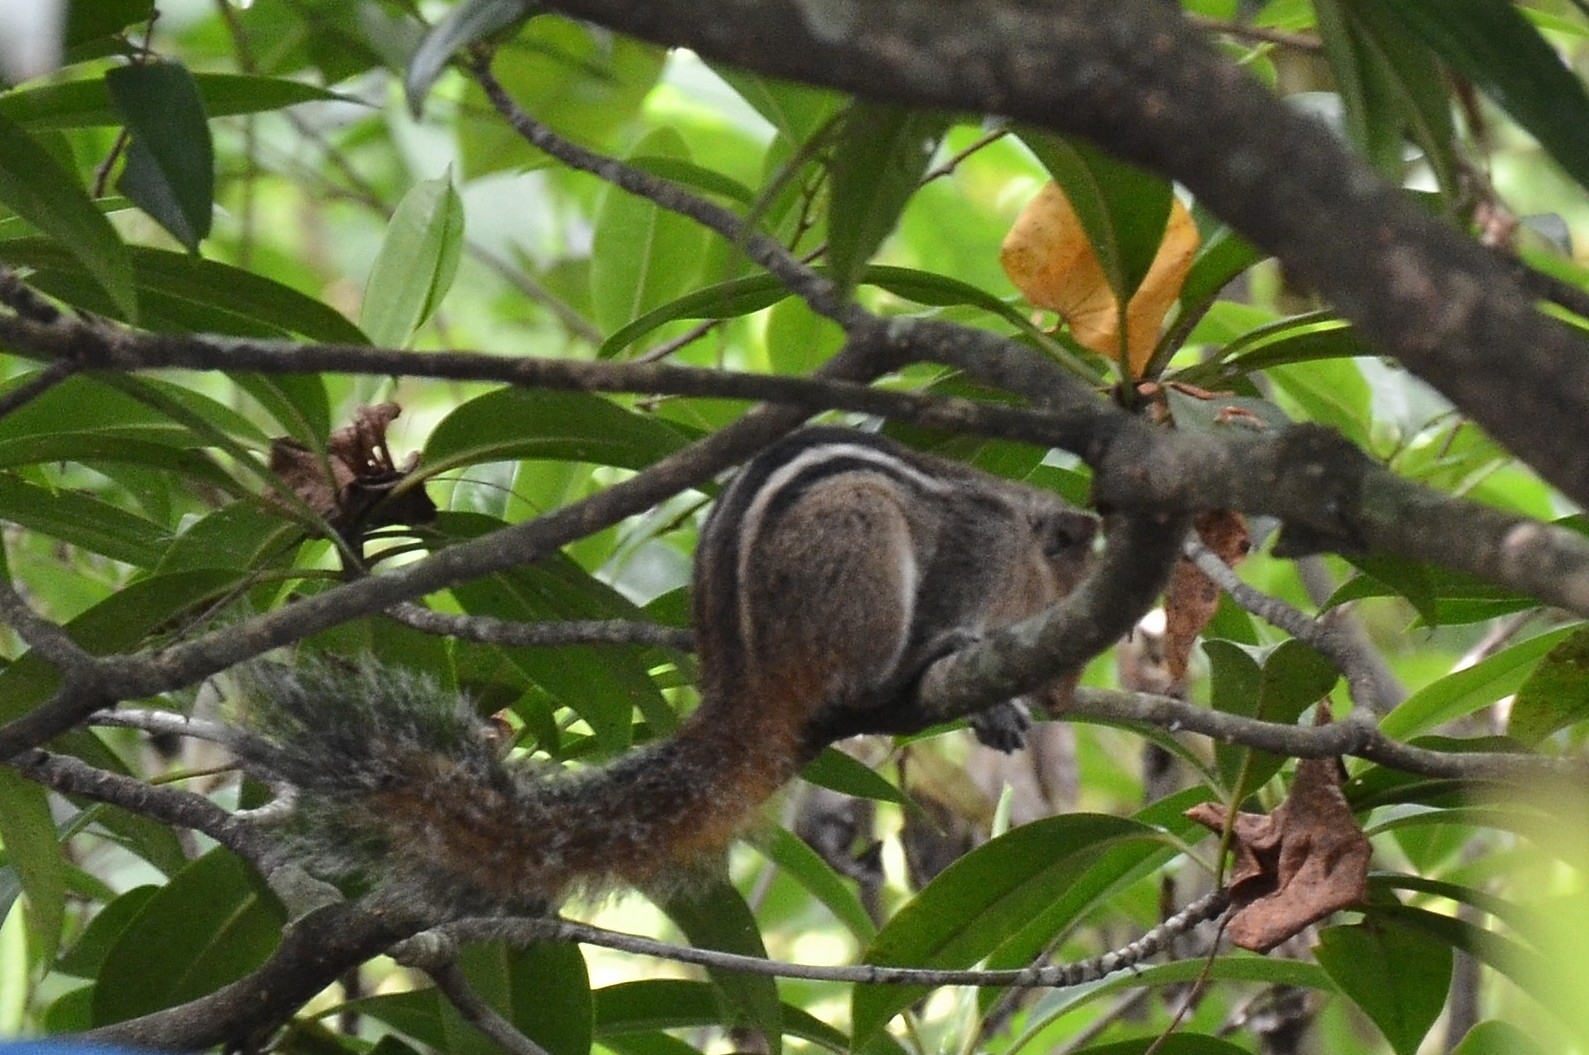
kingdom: Animalia
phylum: Chordata
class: Mammalia
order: Rodentia
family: Sciuridae
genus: Funambulus
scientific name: Funambulus tristriatus
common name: Jungle palm squirrel
